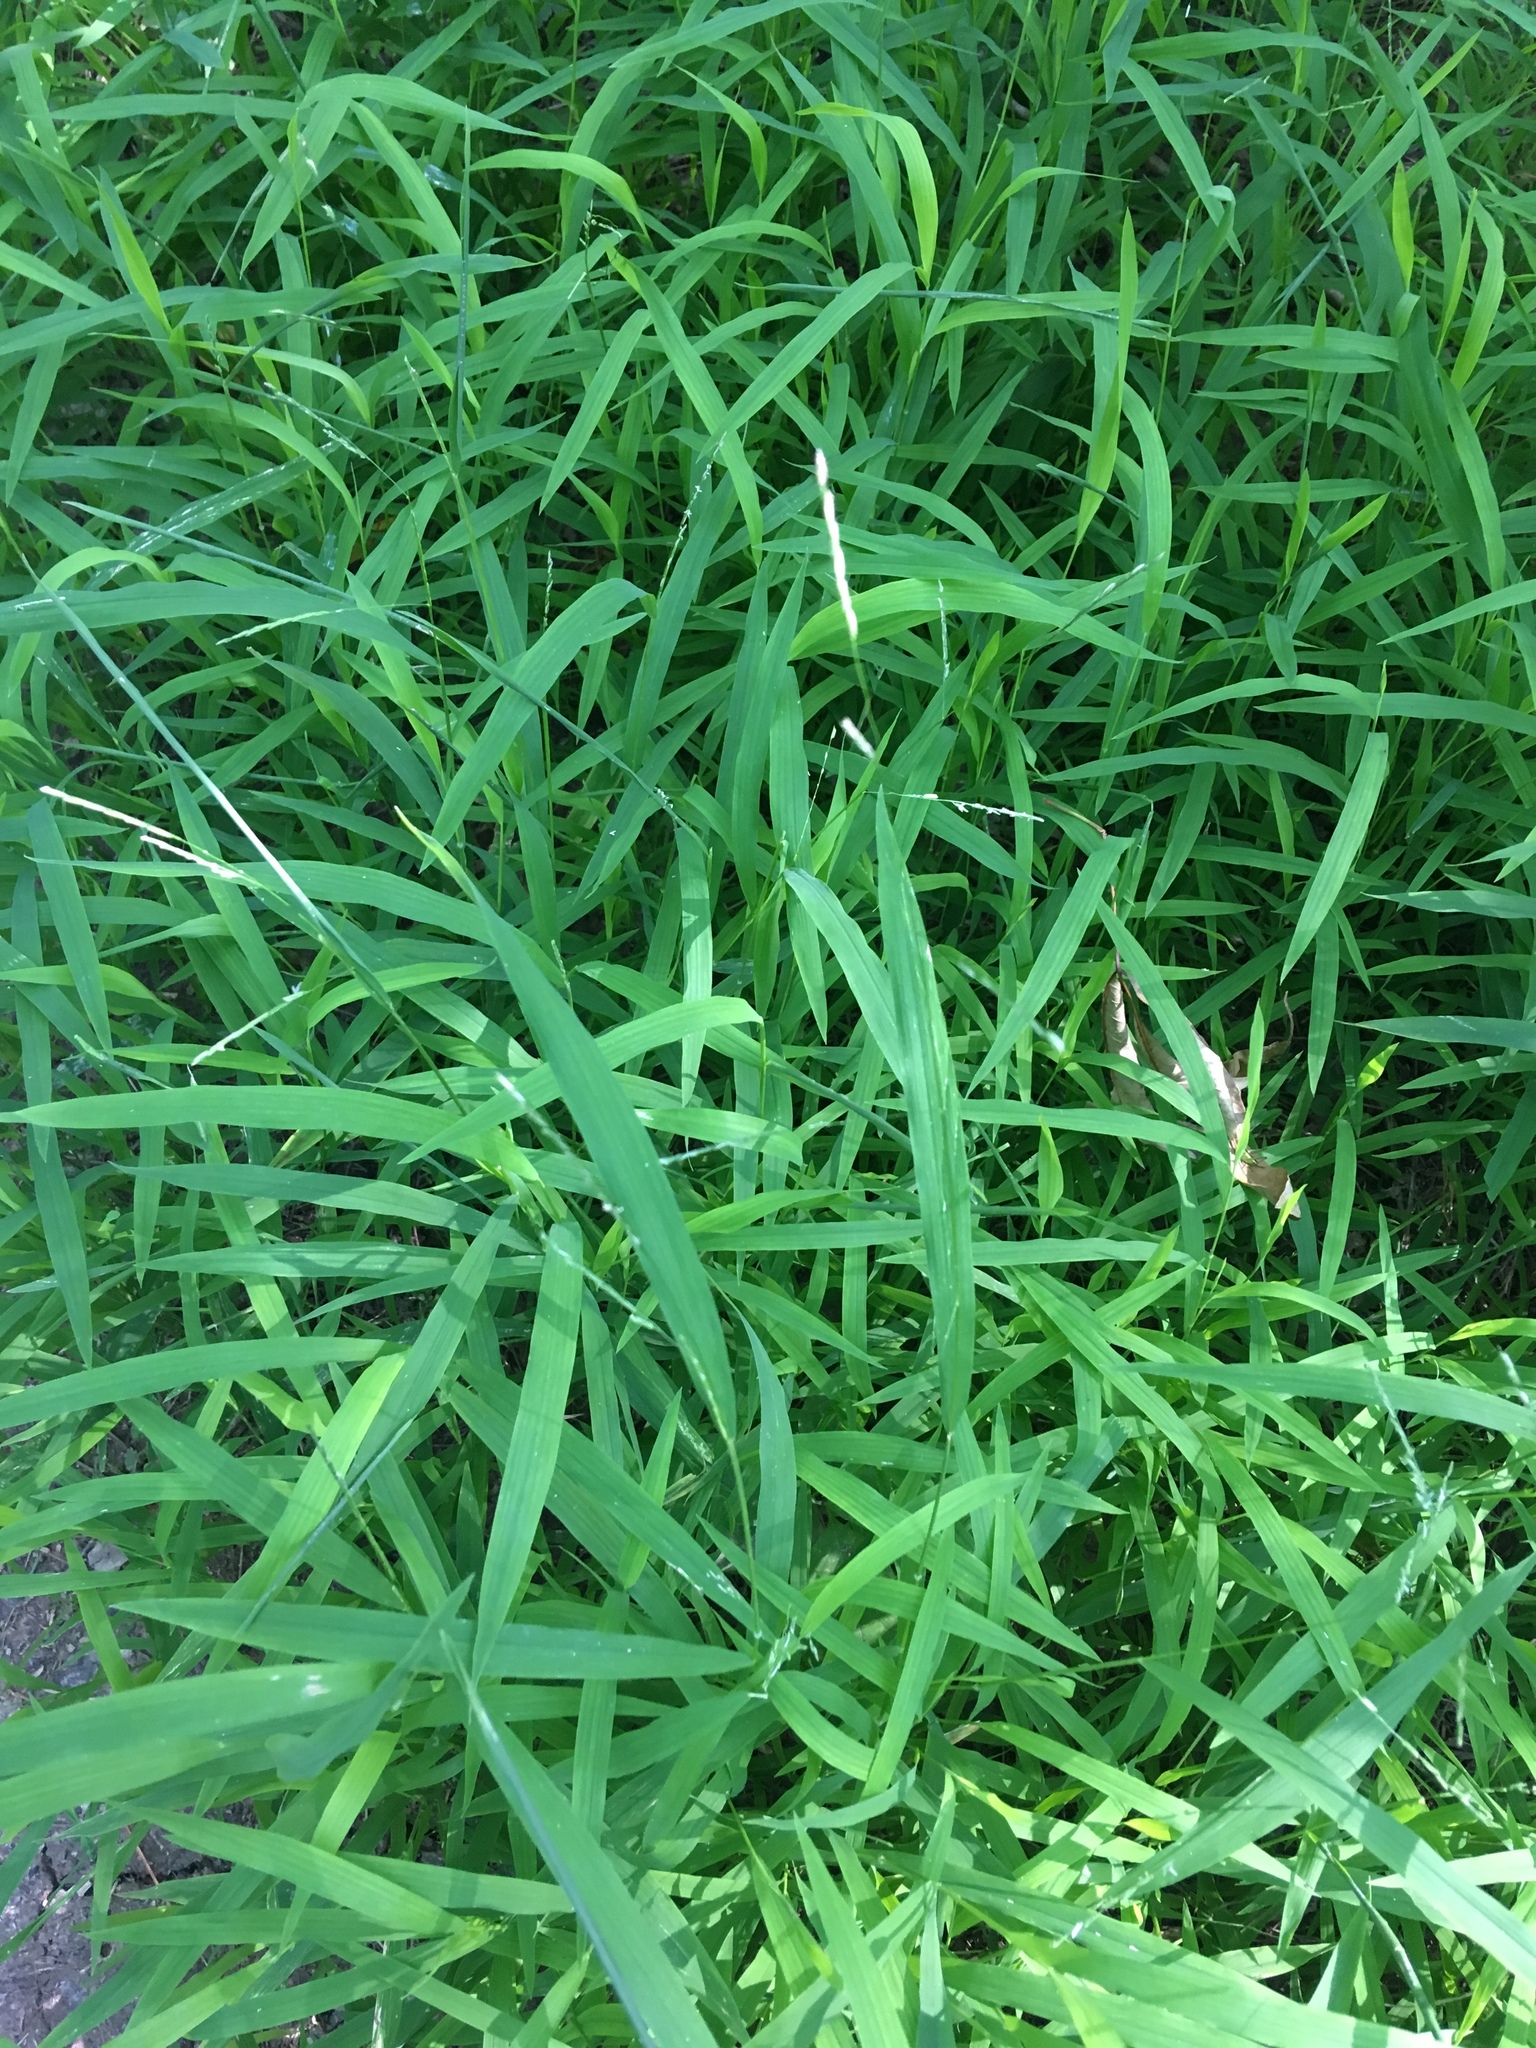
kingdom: Plantae
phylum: Tracheophyta
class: Liliopsida
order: Poales
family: Poaceae
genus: Leersia
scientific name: Leersia virginica
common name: White cutgrass
